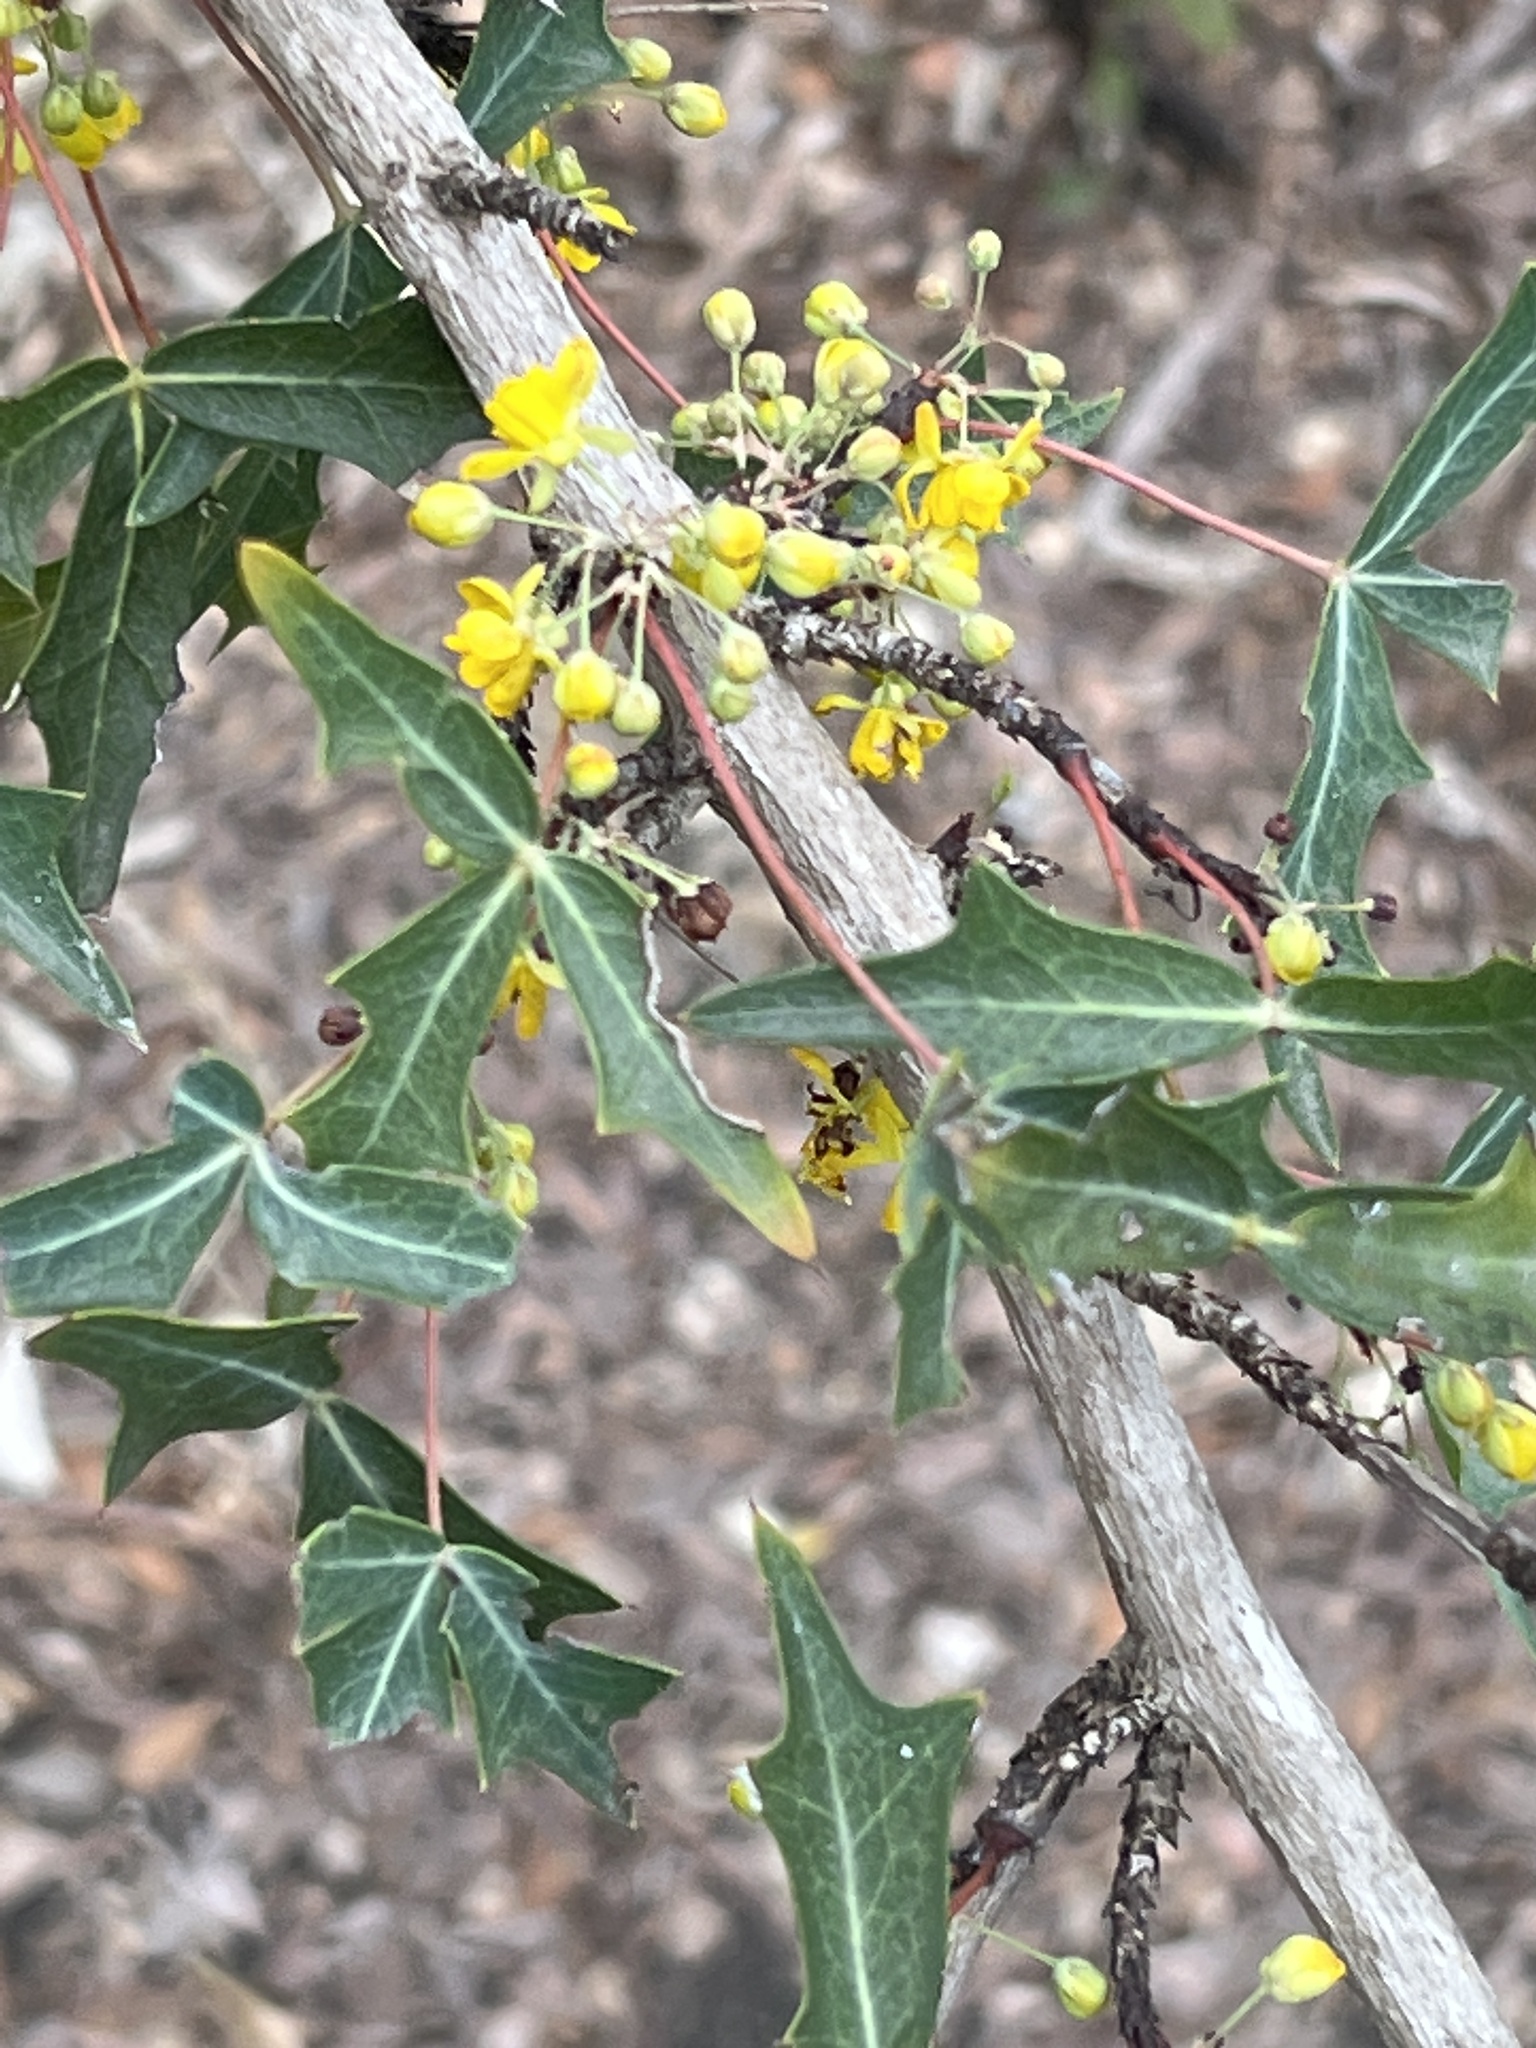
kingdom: Plantae
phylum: Tracheophyta
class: Magnoliopsida
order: Ranunculales
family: Berberidaceae
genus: Alloberberis
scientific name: Alloberberis trifoliolata
